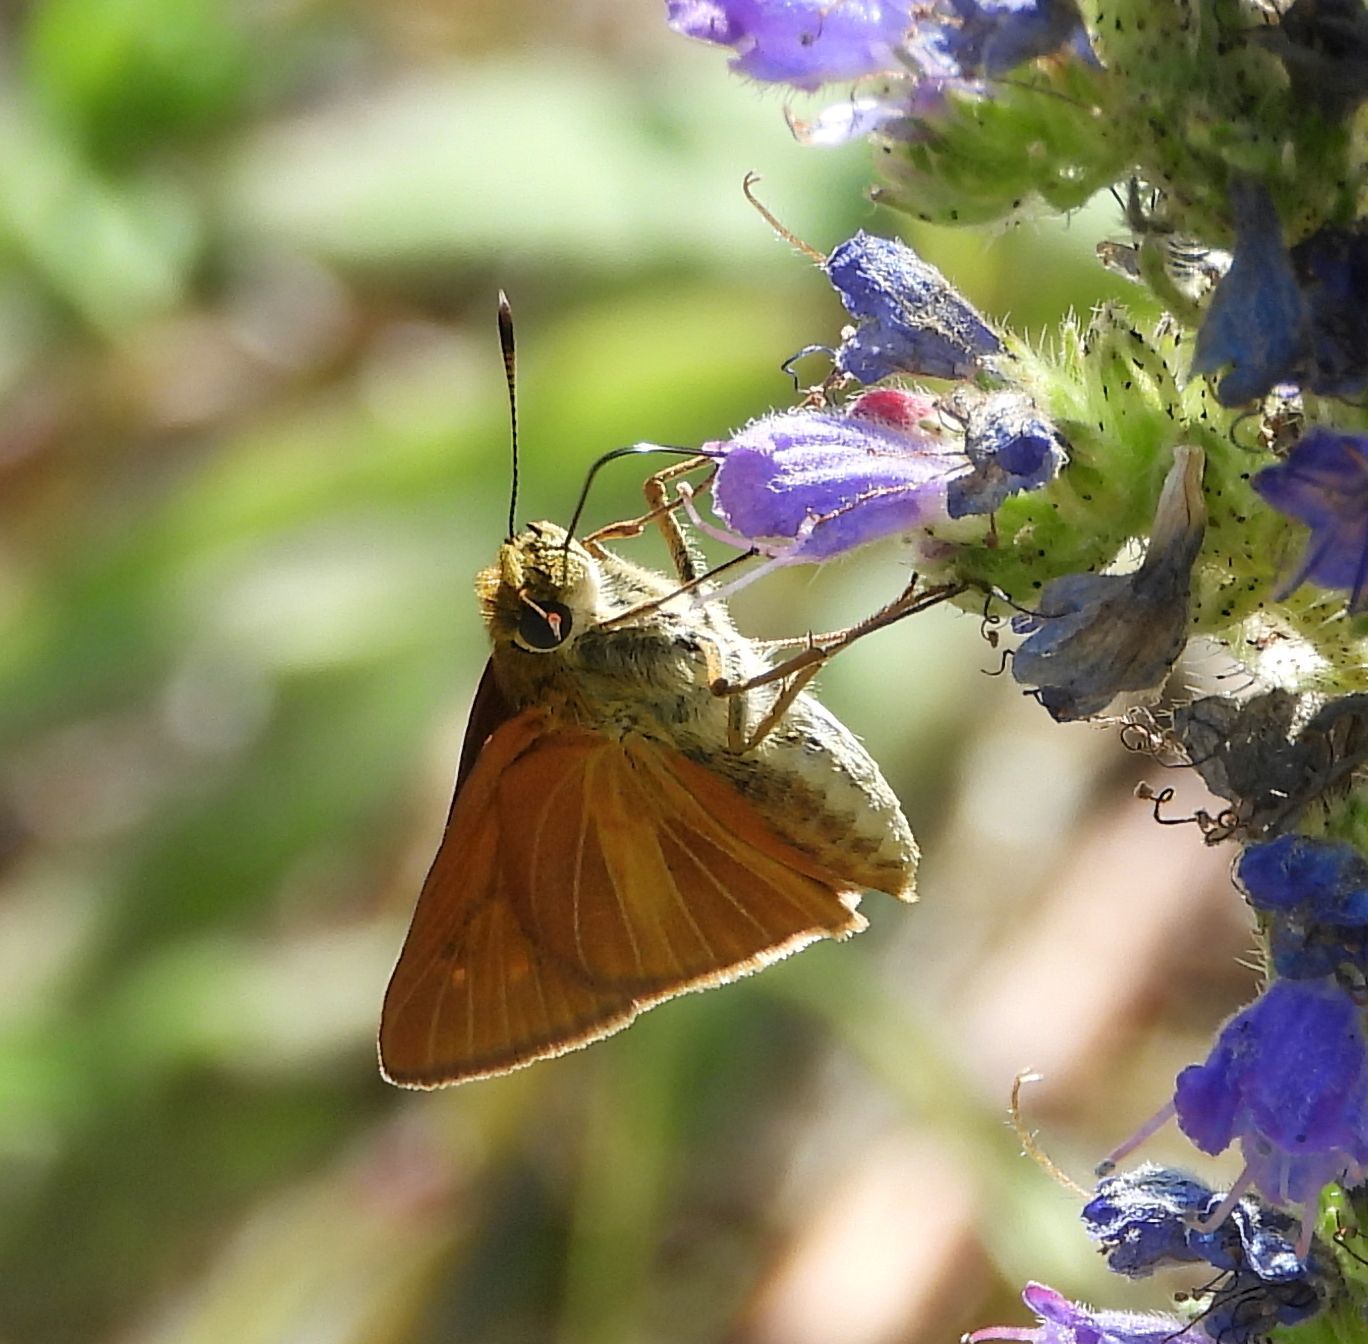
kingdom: Animalia
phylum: Arthropoda
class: Insecta
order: Lepidoptera
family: Hesperiidae
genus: Euphyes
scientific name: Euphyes dion
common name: Dion skipper
